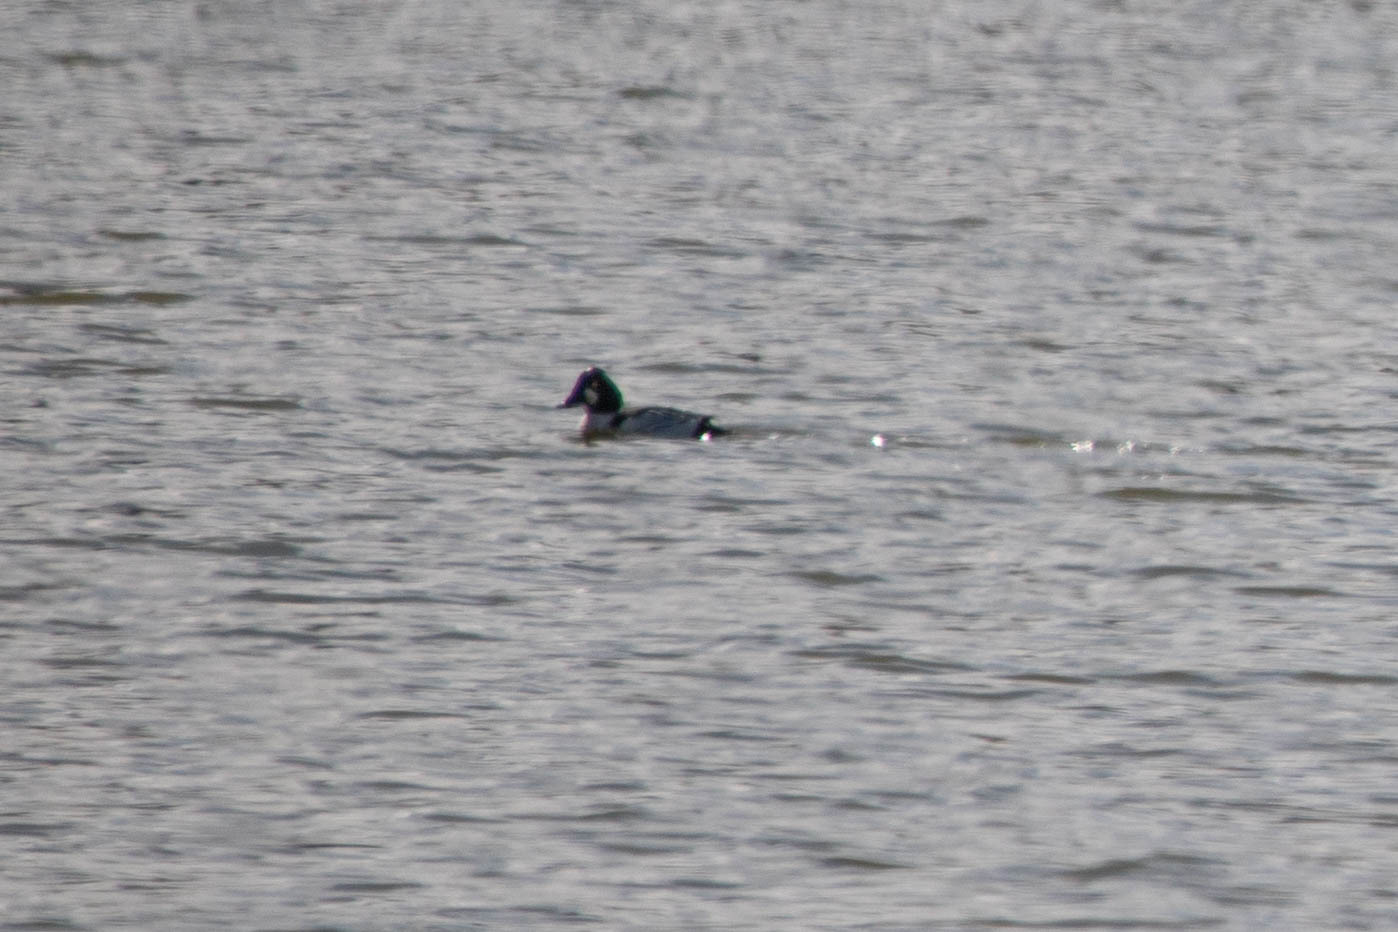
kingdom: Animalia
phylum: Chordata
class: Aves
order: Anseriformes
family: Anatidae
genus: Bucephala
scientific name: Bucephala clangula
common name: Common goldeneye
